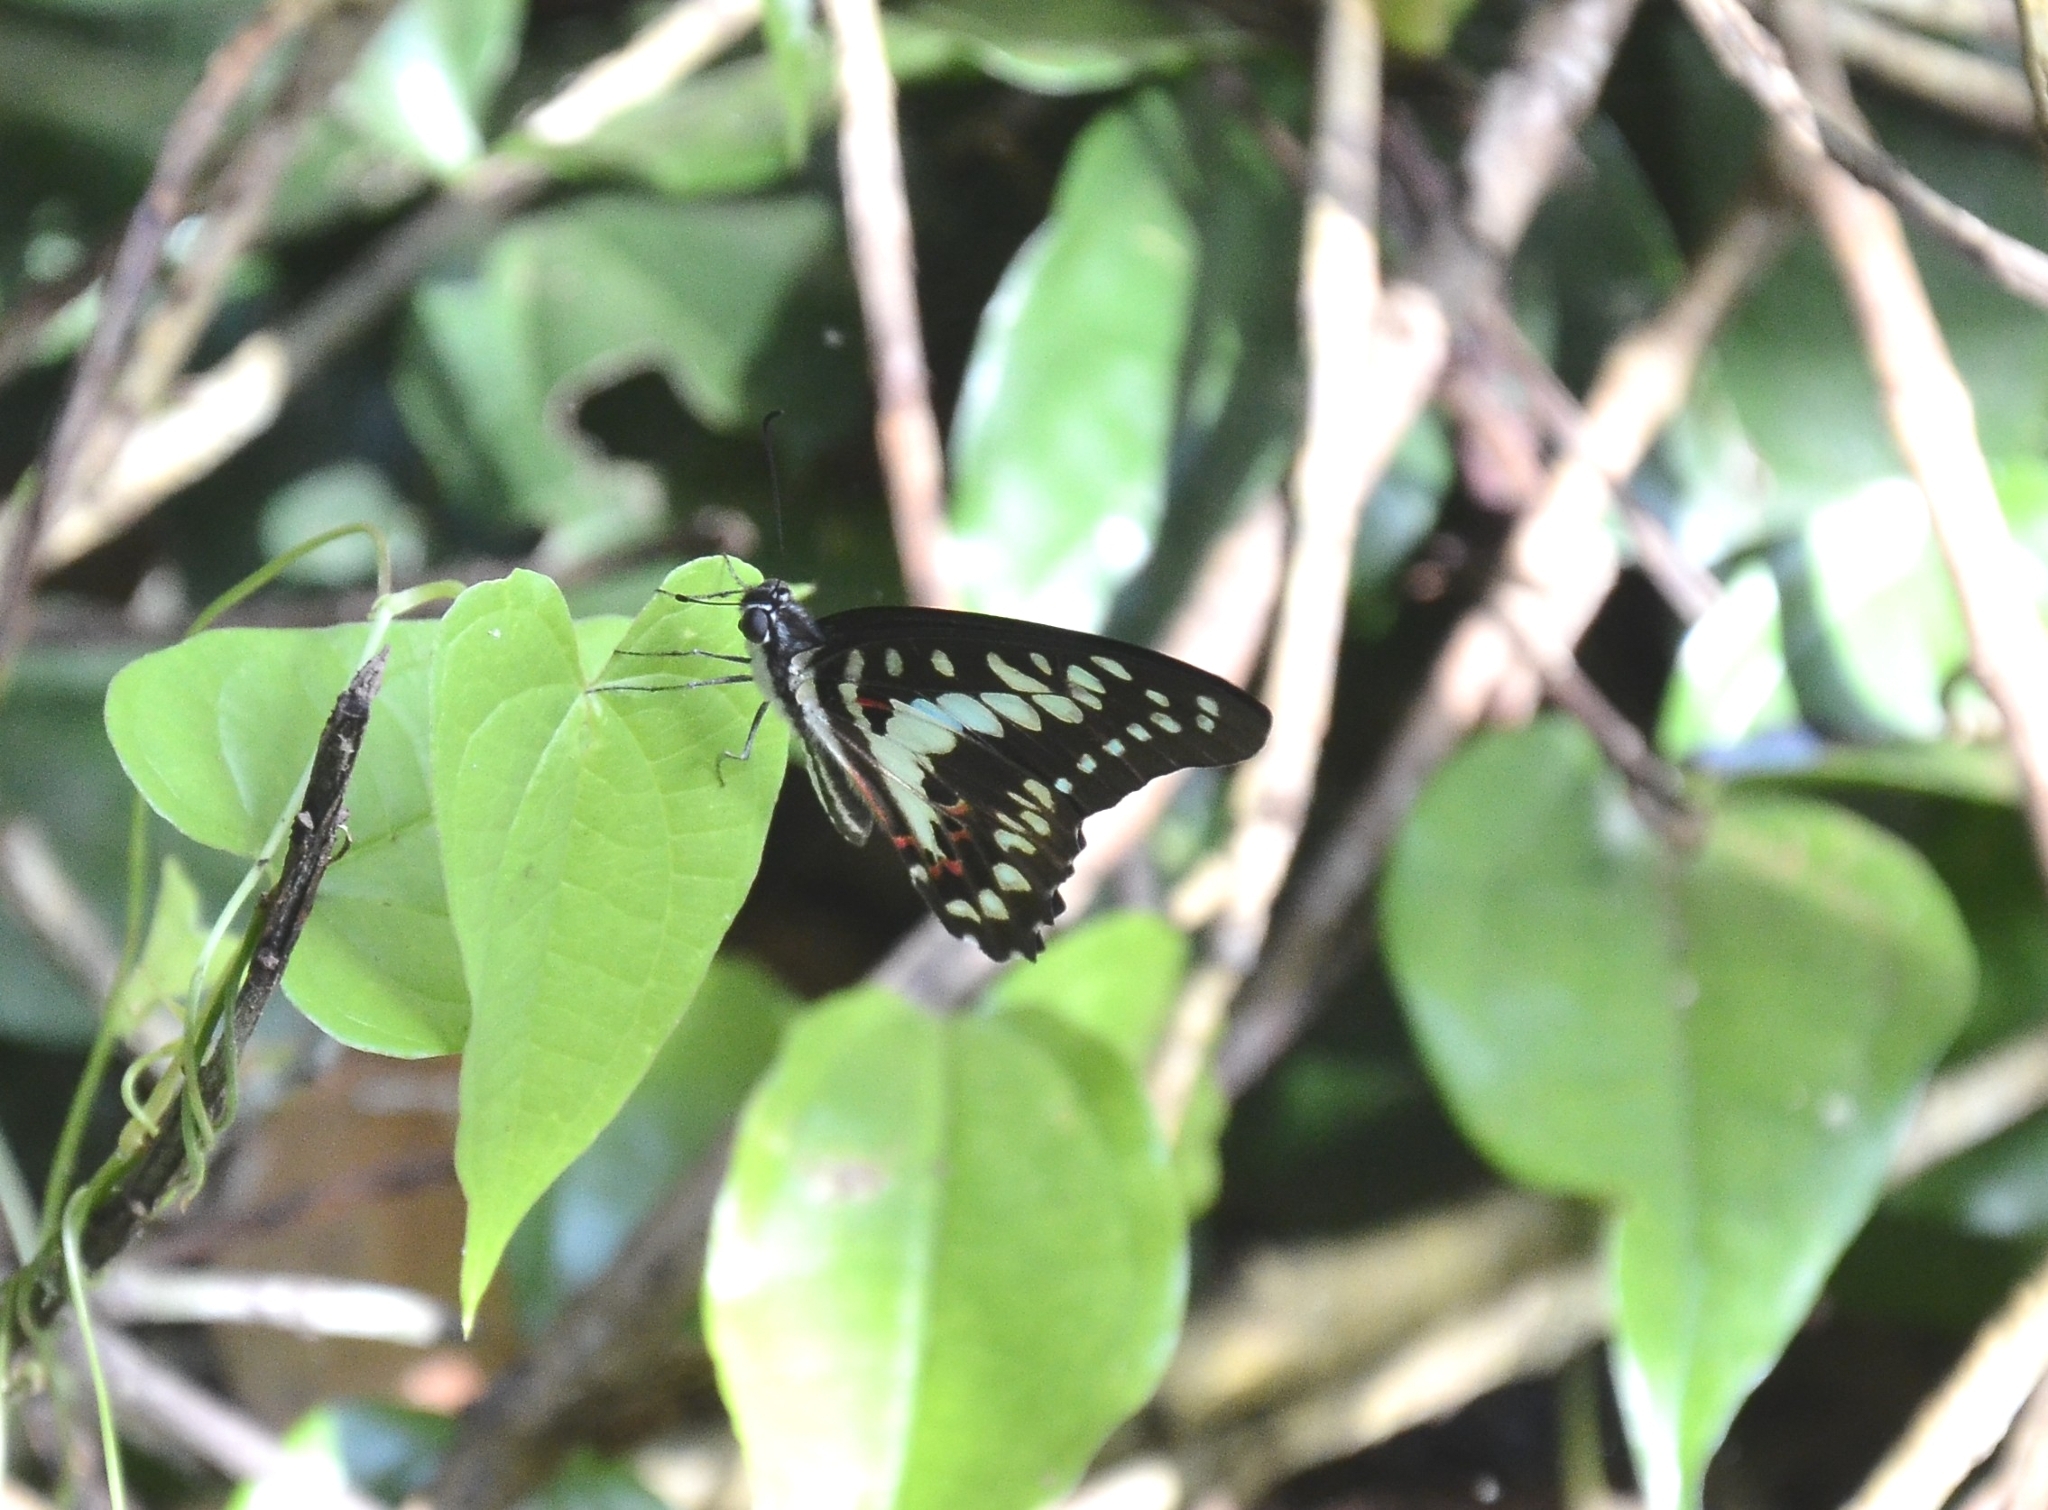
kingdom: Animalia
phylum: Arthropoda
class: Insecta
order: Lepidoptera
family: Papilionidae
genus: Graphium
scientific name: Graphium doson
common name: Common jay
